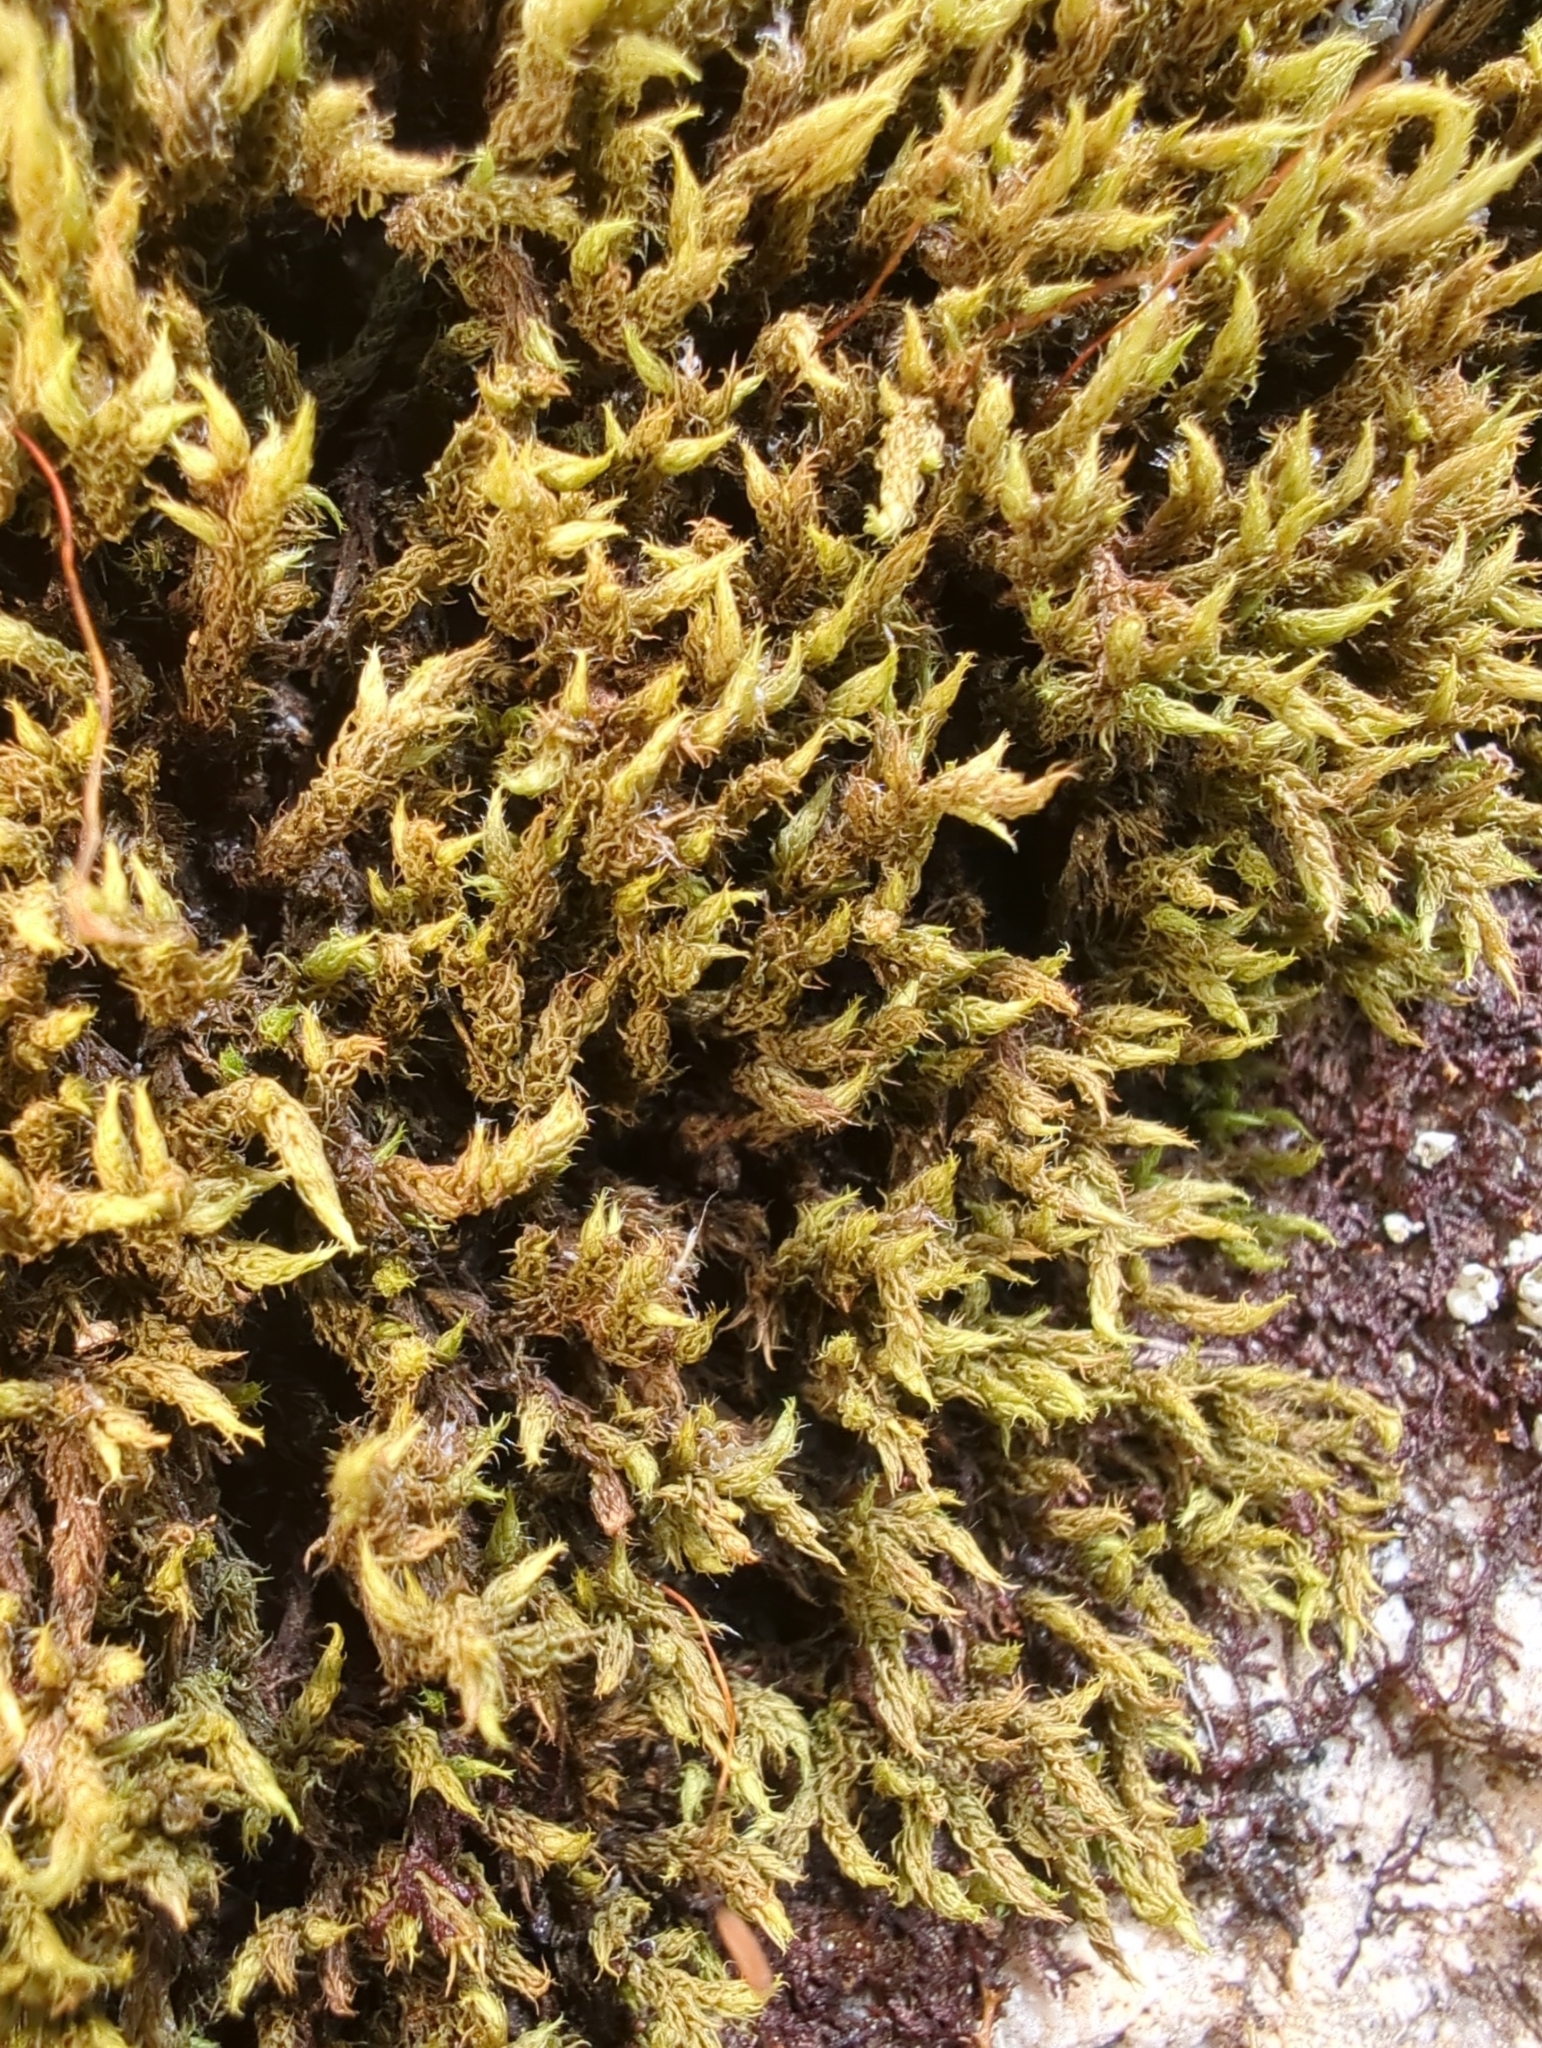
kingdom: Plantae
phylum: Bryophyta
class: Bryopsida
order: Dicranales
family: Dicranaceae
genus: Sclerodontium
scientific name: Sclerodontium pallidum
